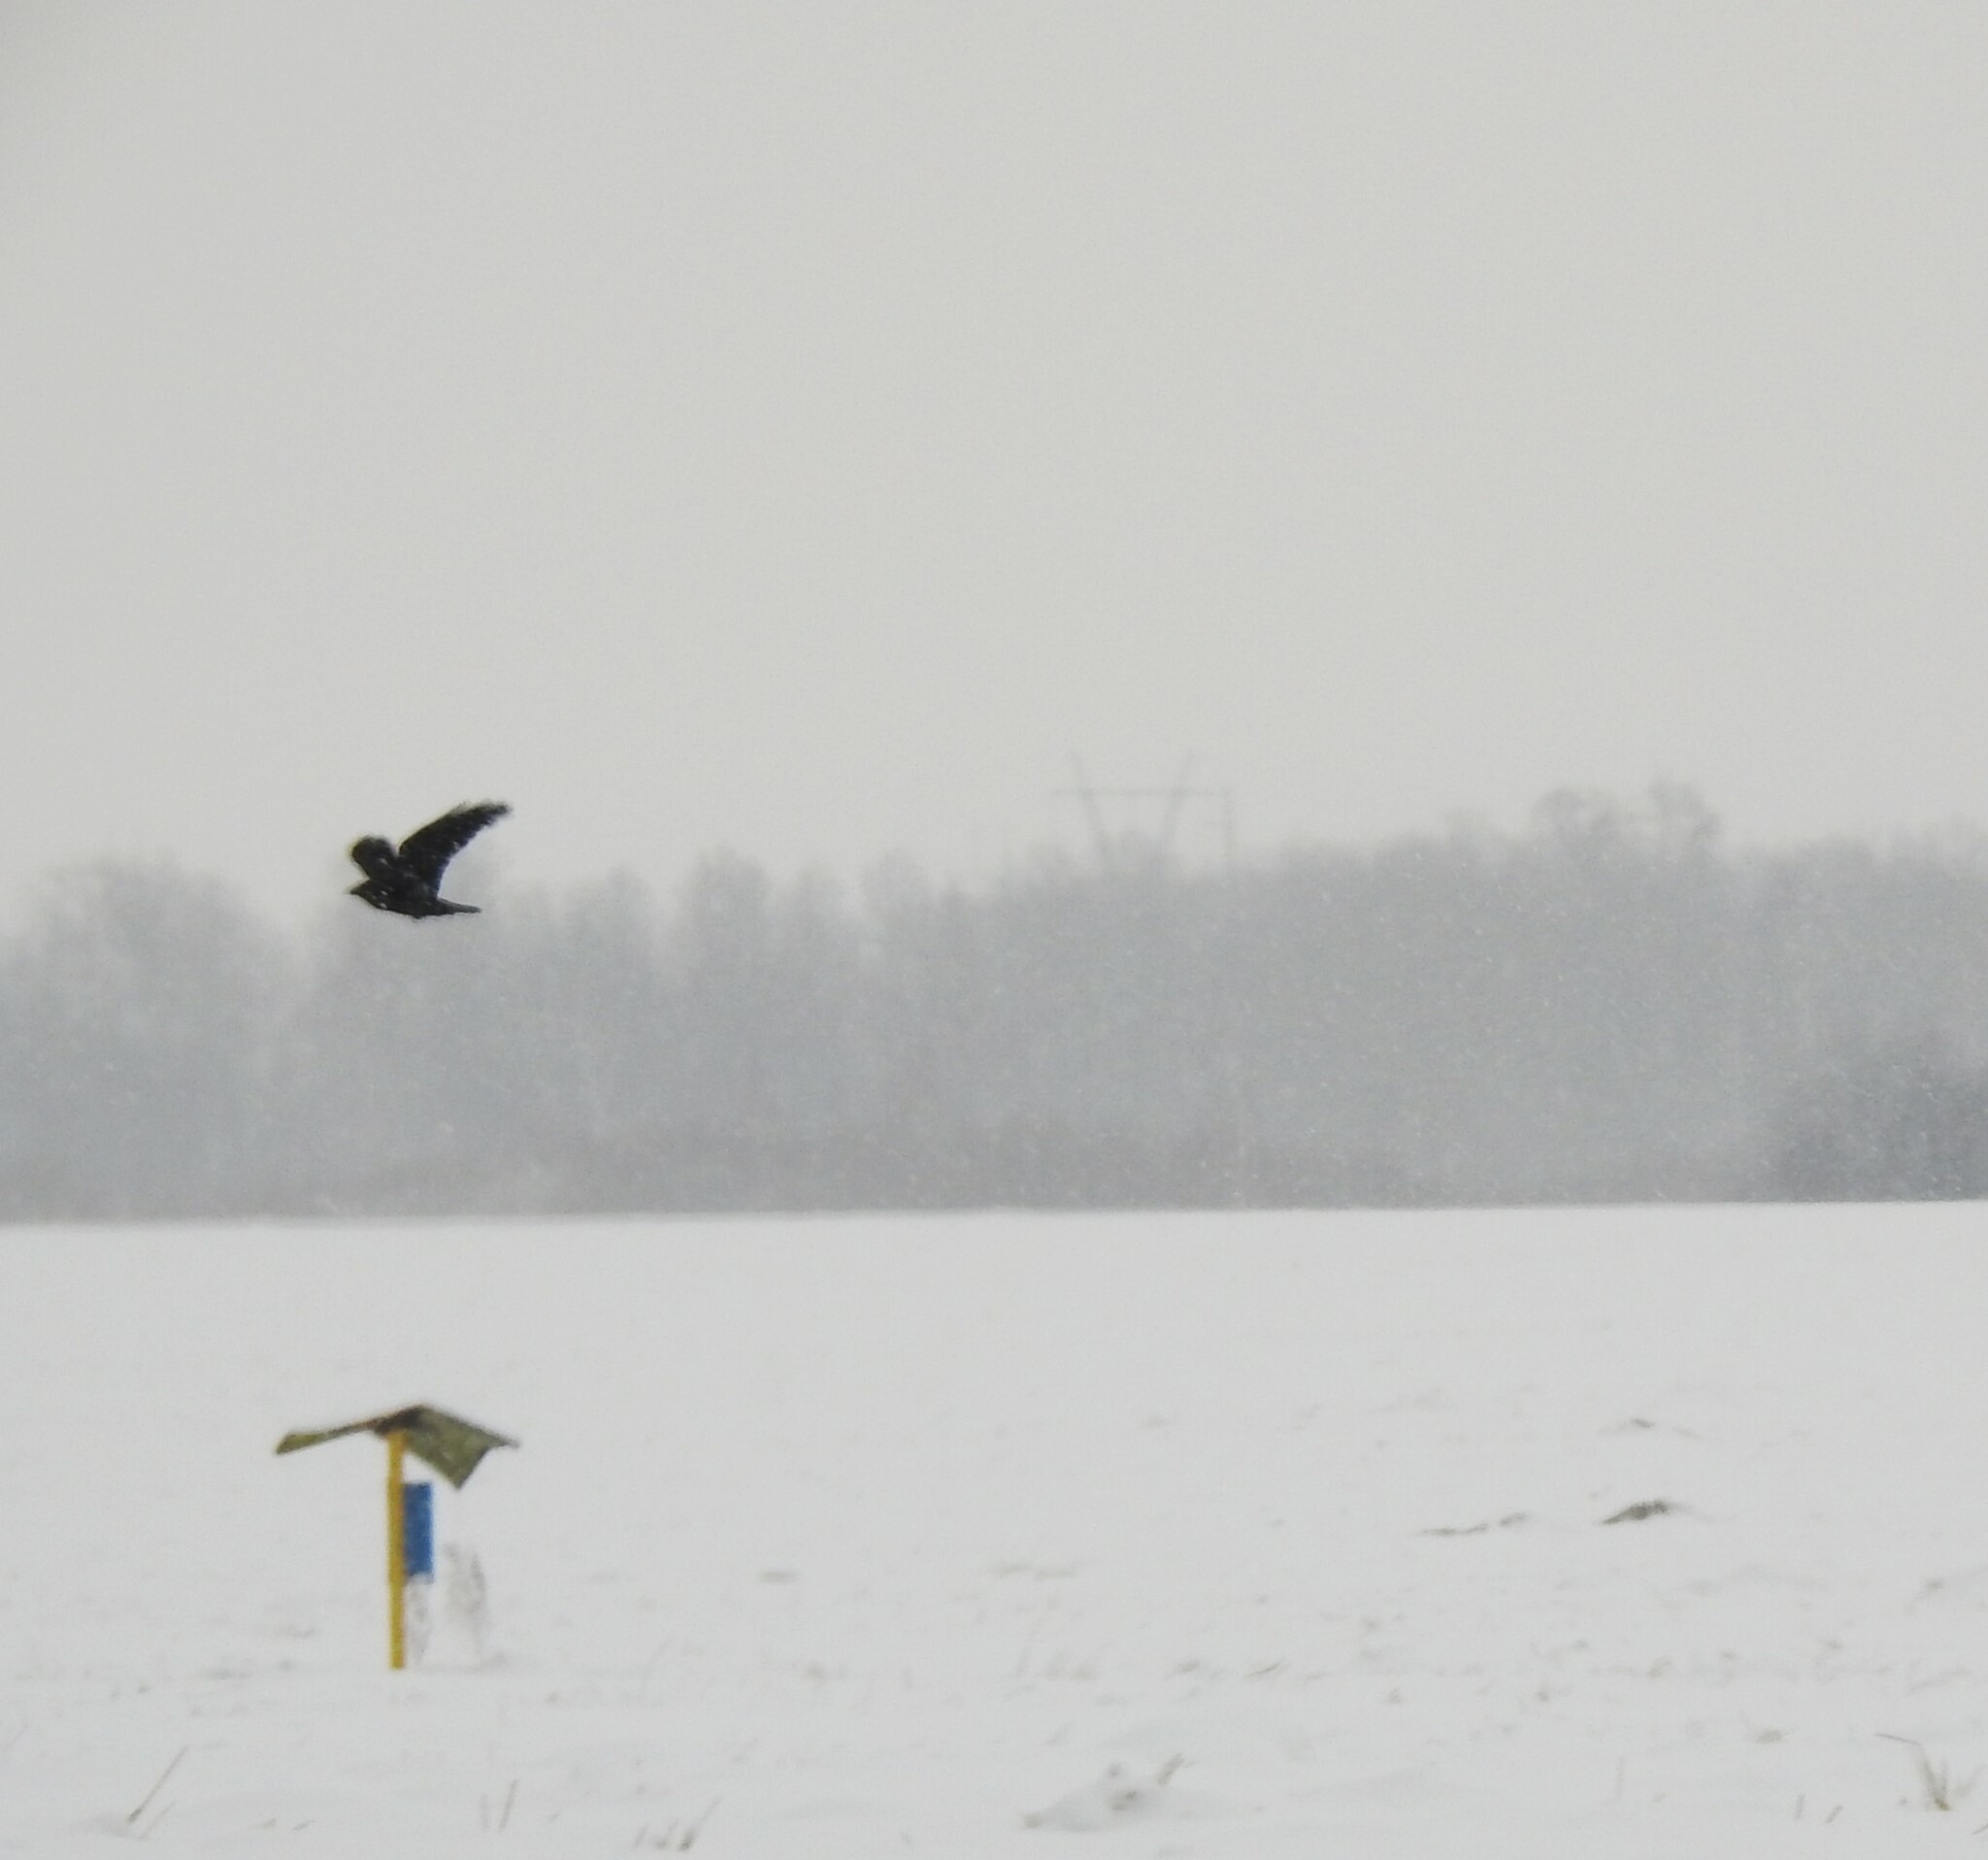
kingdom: Animalia
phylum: Chordata
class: Aves
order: Passeriformes
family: Corvidae
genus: Corvus
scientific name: Corvus corax
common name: Common raven
